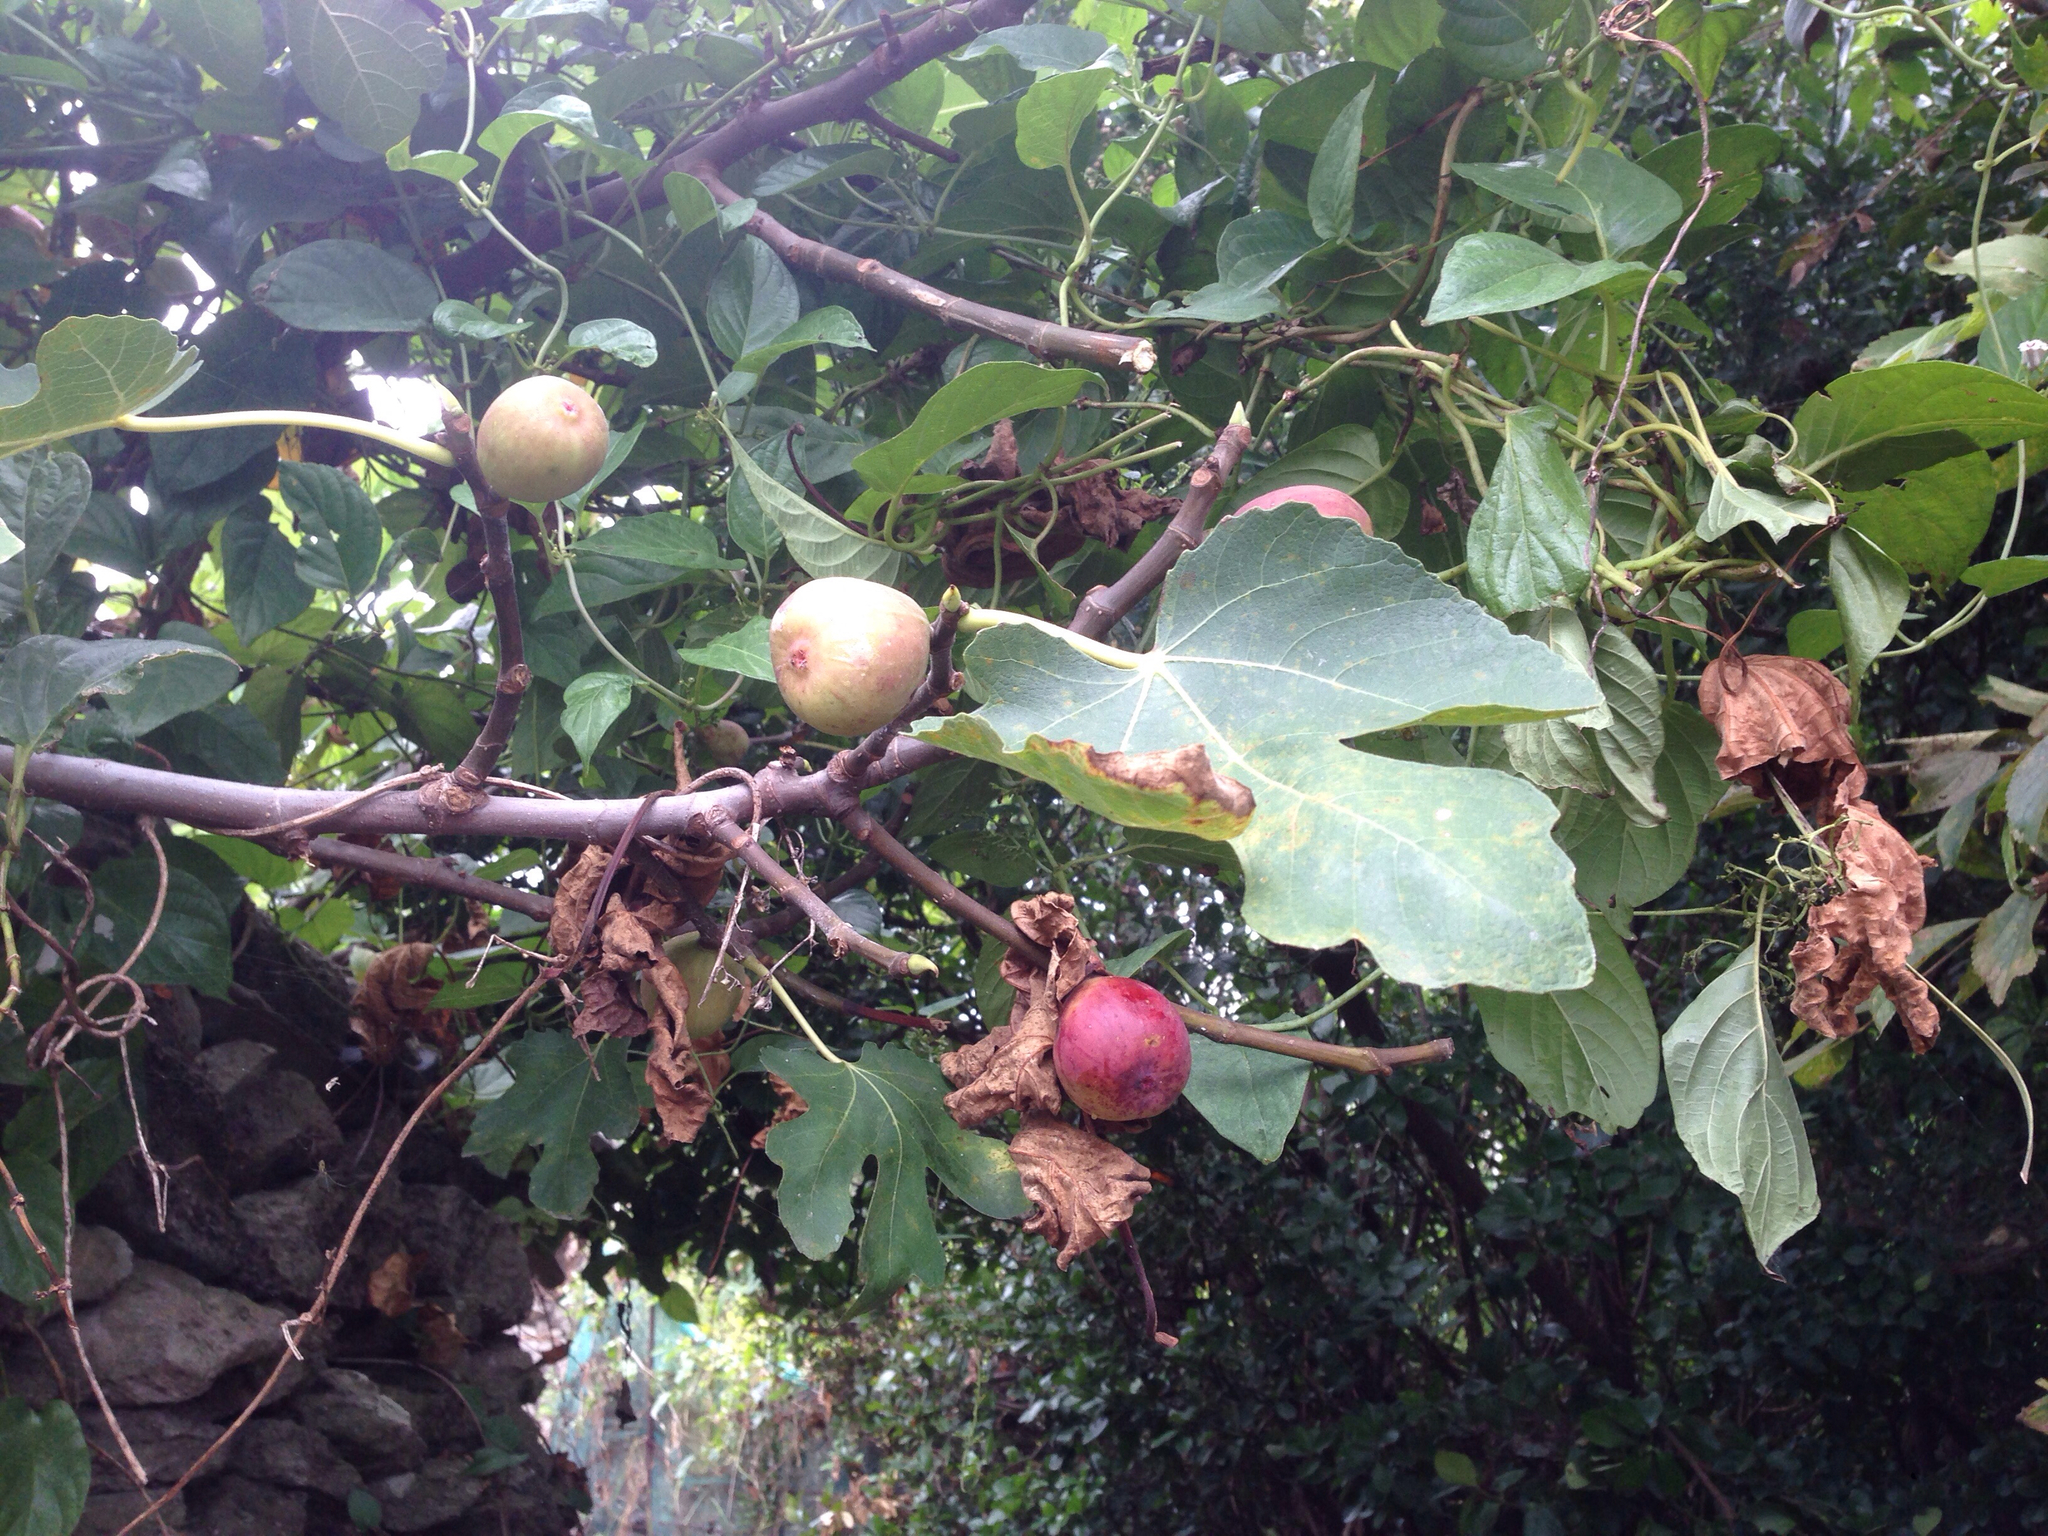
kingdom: Plantae
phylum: Tracheophyta
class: Magnoliopsida
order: Rosales
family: Moraceae
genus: Ficus
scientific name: Ficus carica
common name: Fig
